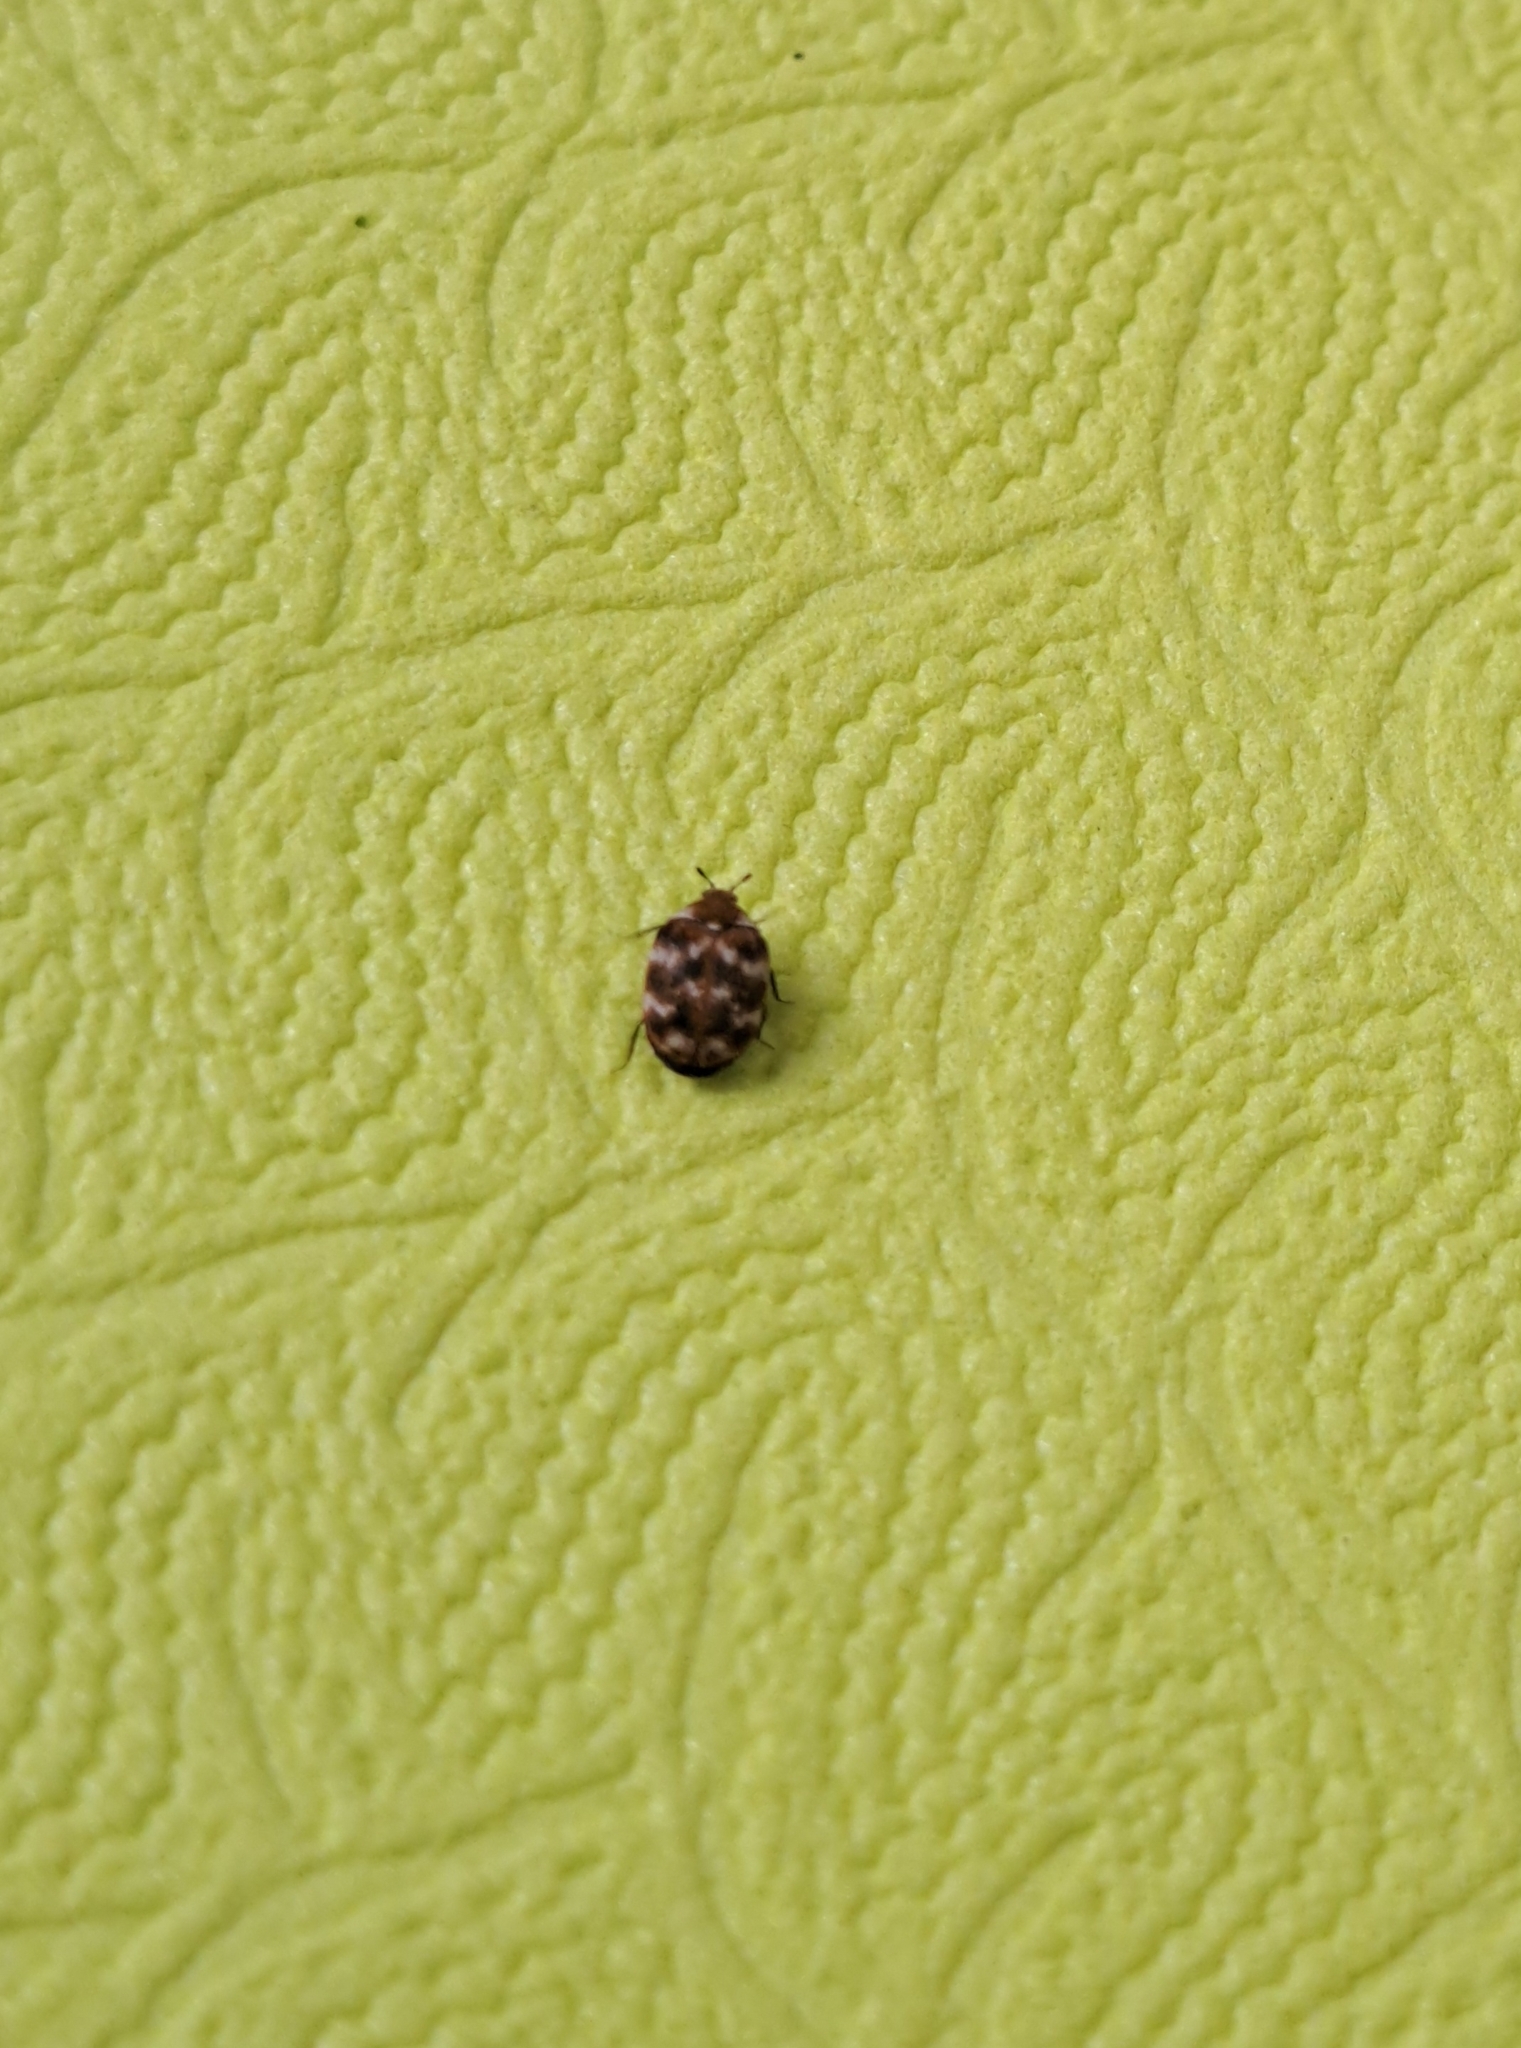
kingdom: Animalia
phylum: Arthropoda
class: Insecta
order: Coleoptera
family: Dermestidae
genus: Anthrenus
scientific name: Anthrenus verbasci
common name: Varied carpet beetle
